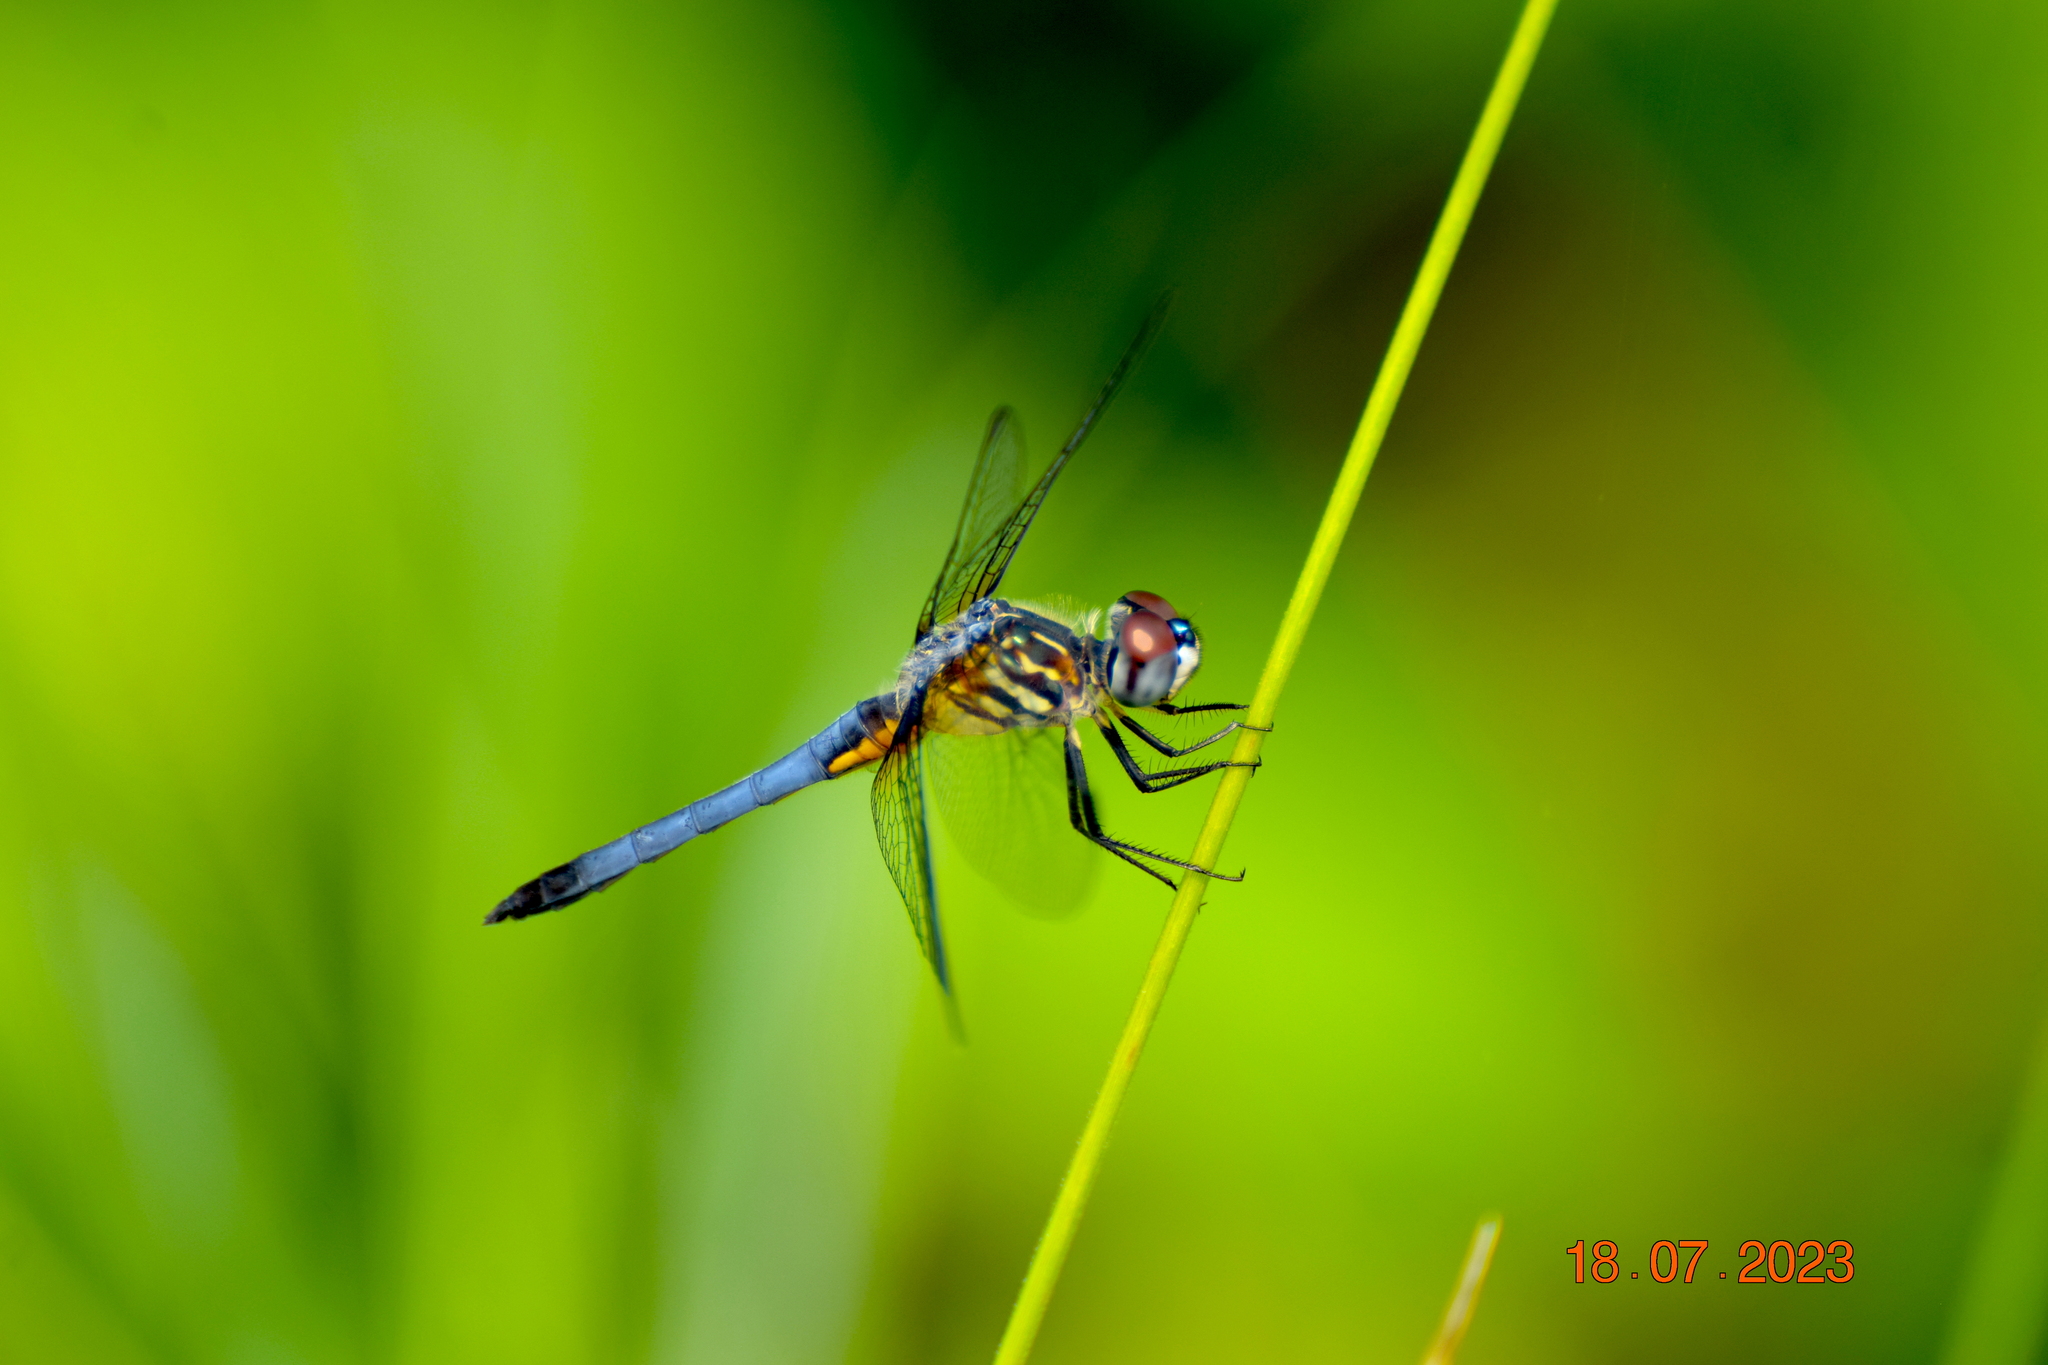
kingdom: Animalia
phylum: Arthropoda
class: Insecta
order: Odonata
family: Libellulidae
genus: Pachydiplax
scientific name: Pachydiplax longipennis
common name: Blue dasher
